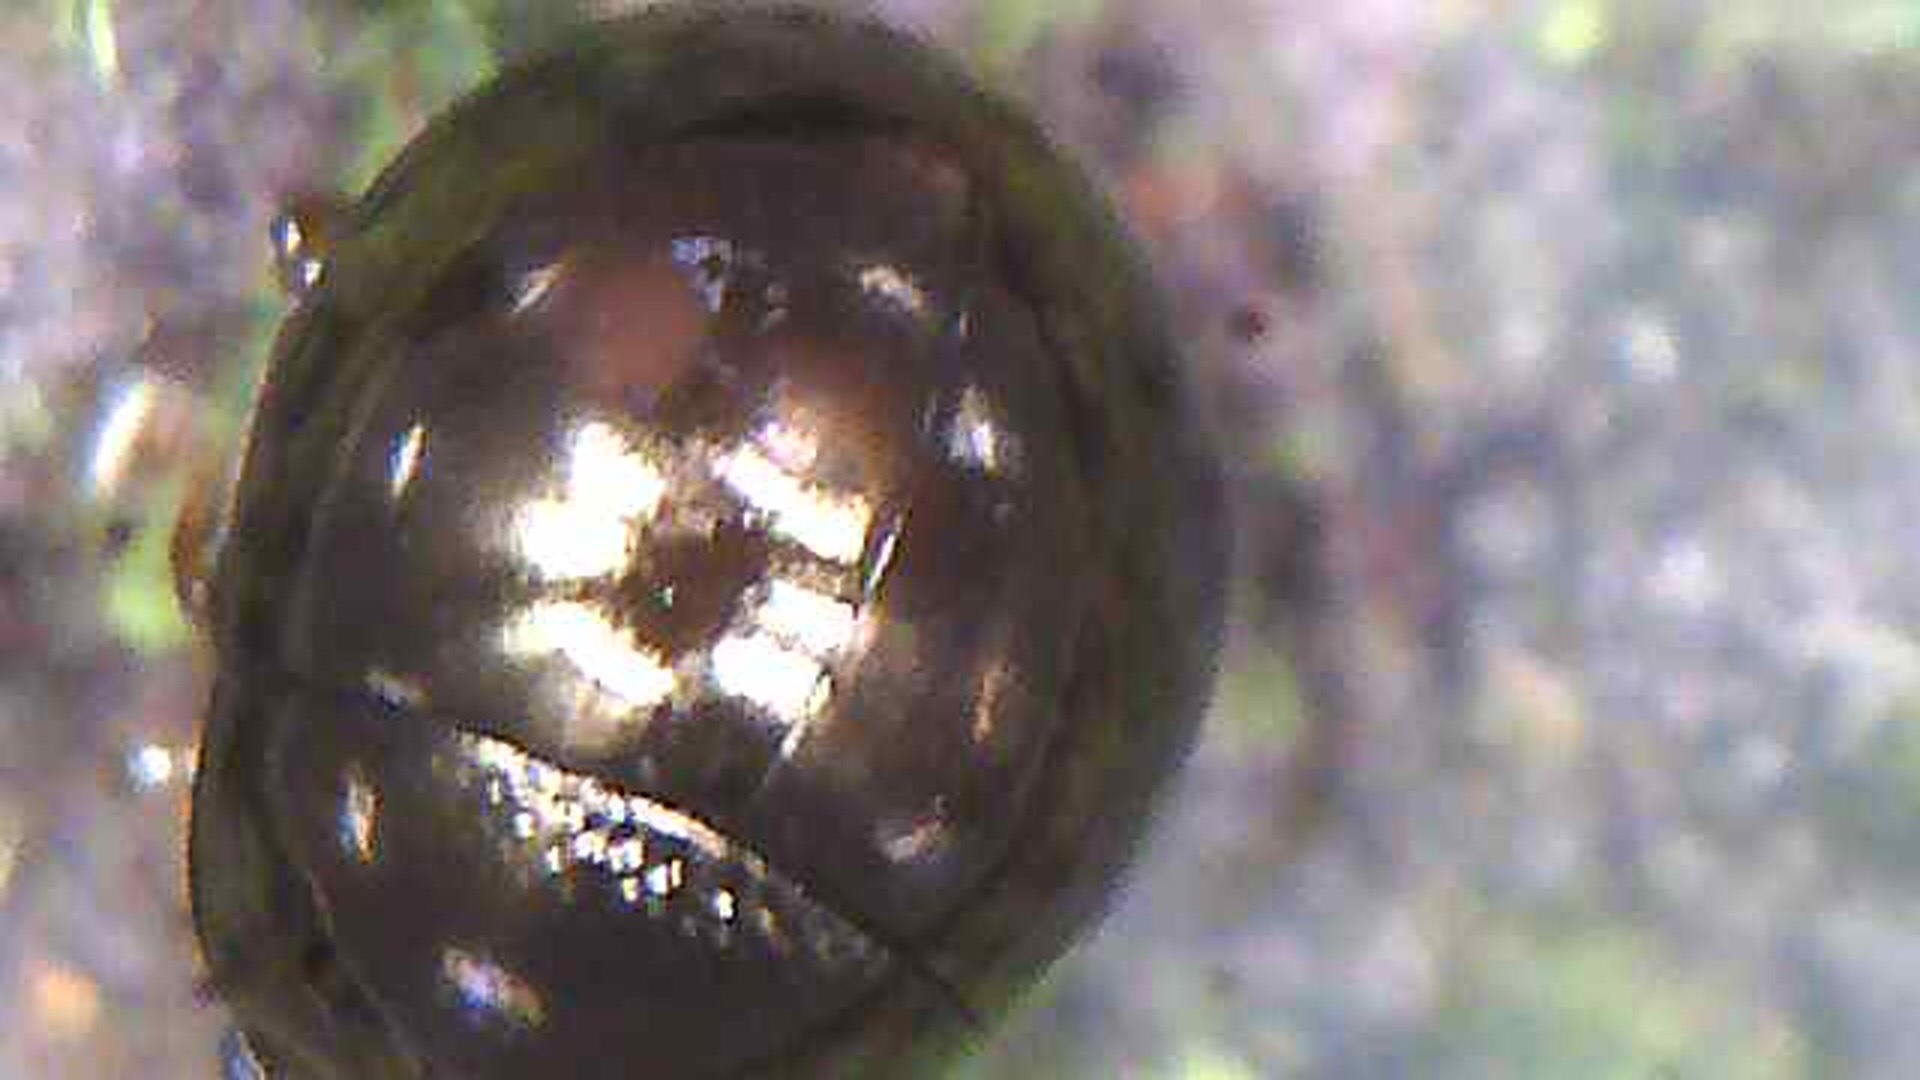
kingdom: Animalia
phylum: Arthropoda
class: Insecta
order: Coleoptera
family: Chrysomelidae
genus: Aphilon
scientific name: Aphilon enigma
